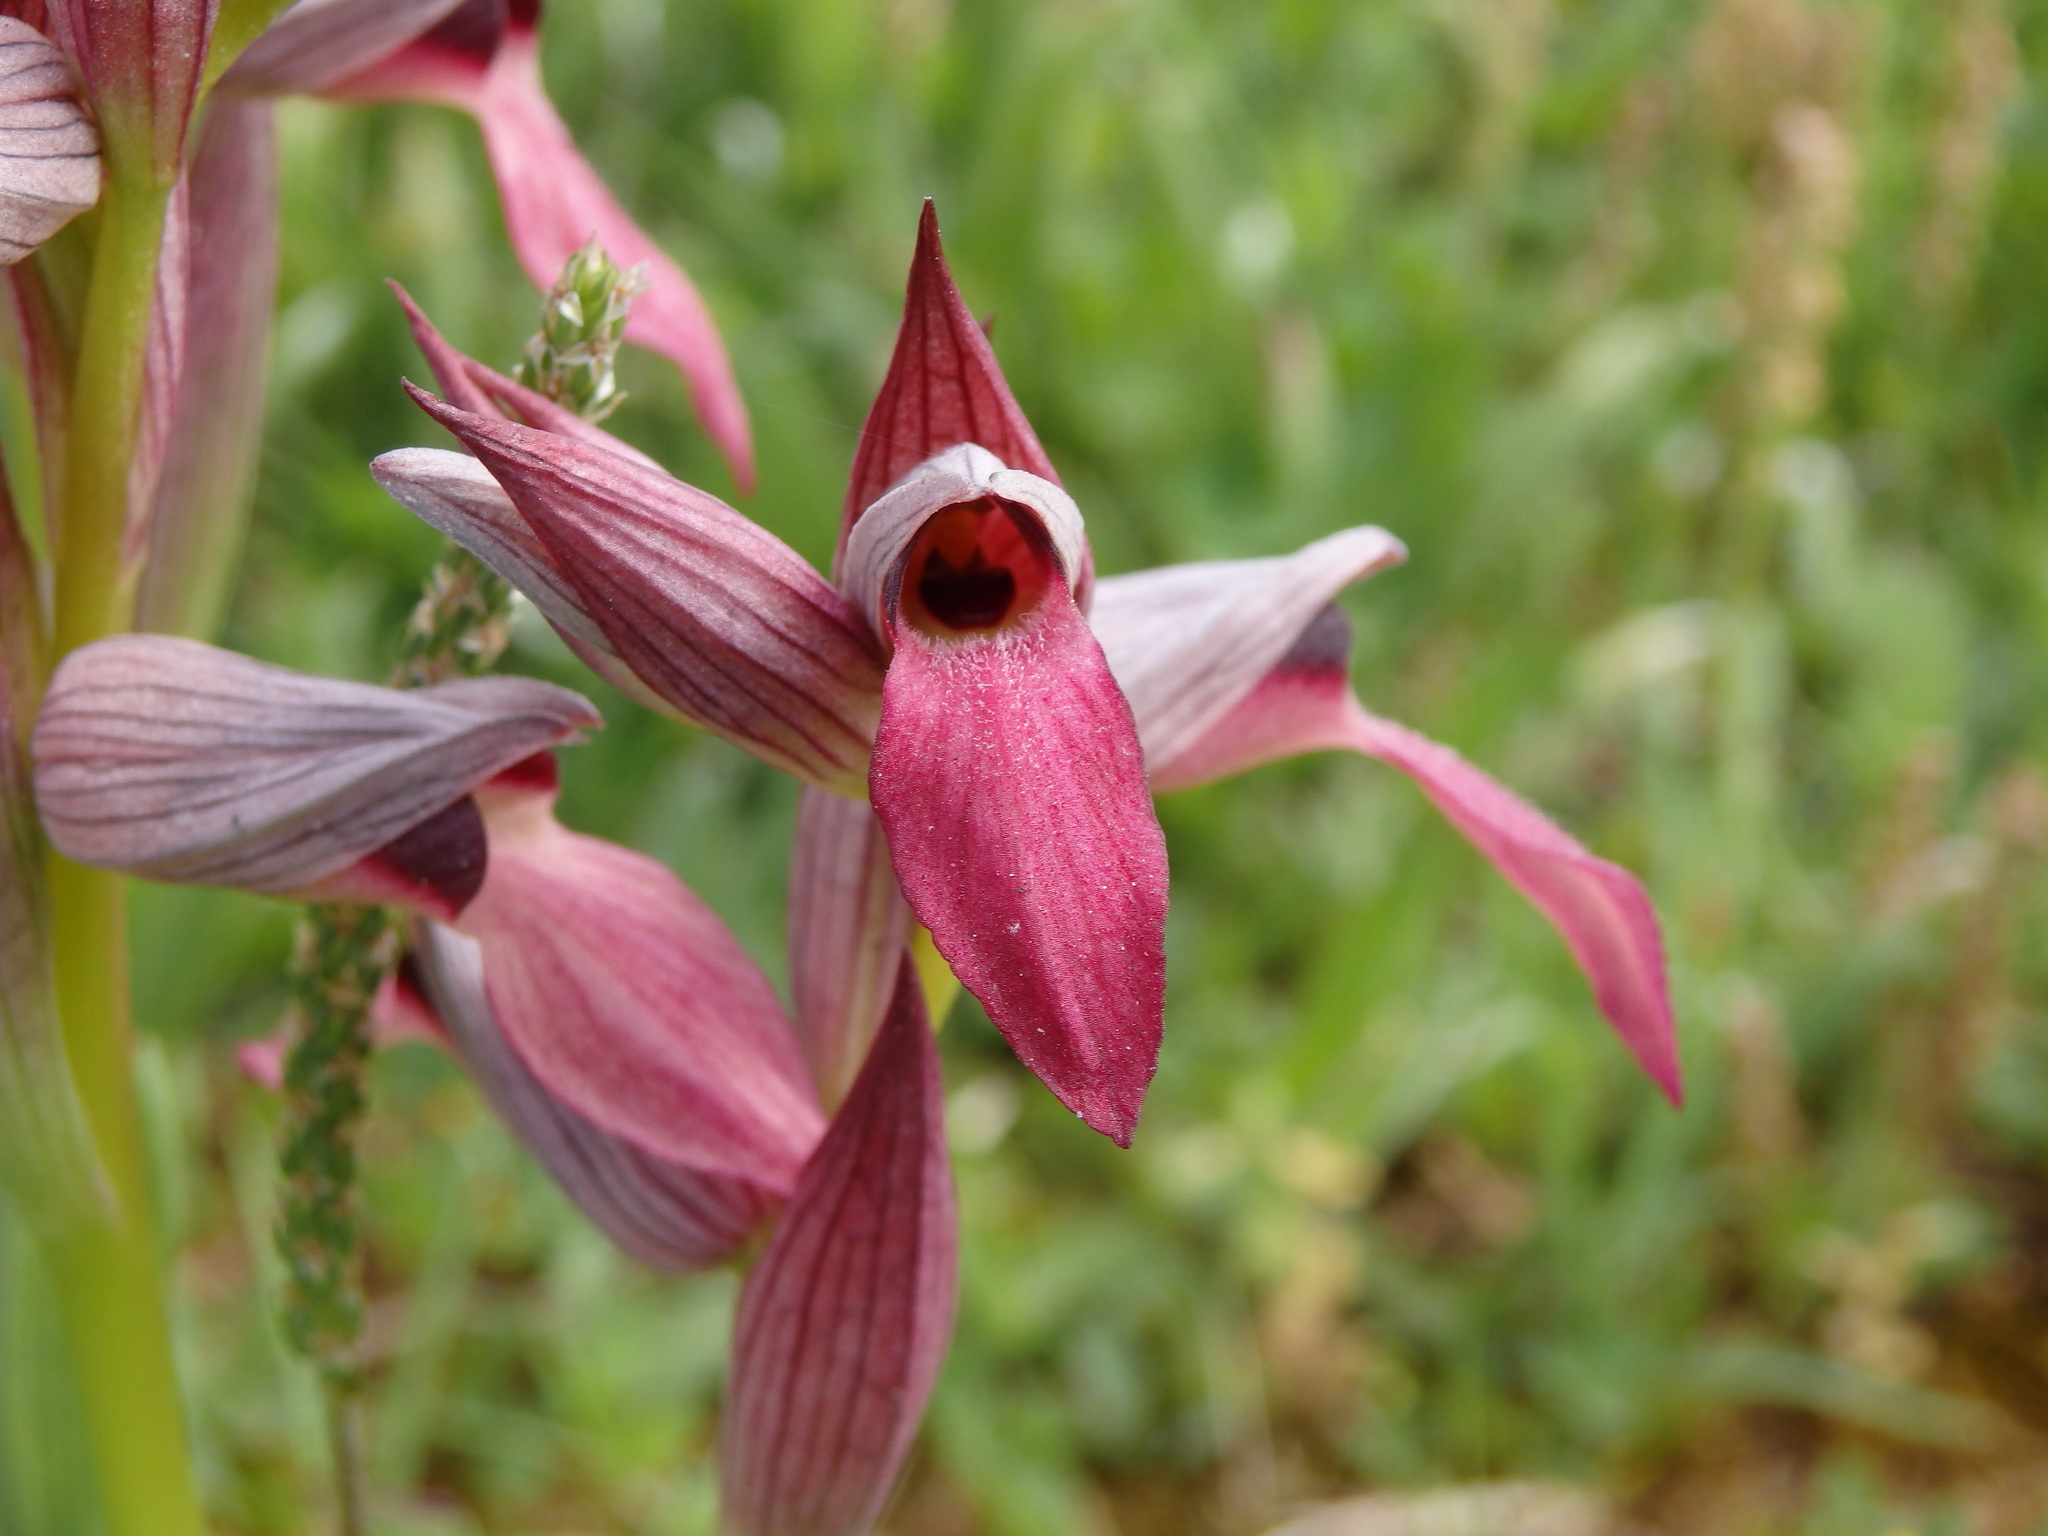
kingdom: Plantae
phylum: Tracheophyta
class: Liliopsida
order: Asparagales
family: Orchidaceae
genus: Serapias
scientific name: Serapias lingua
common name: Tongue-orchid
